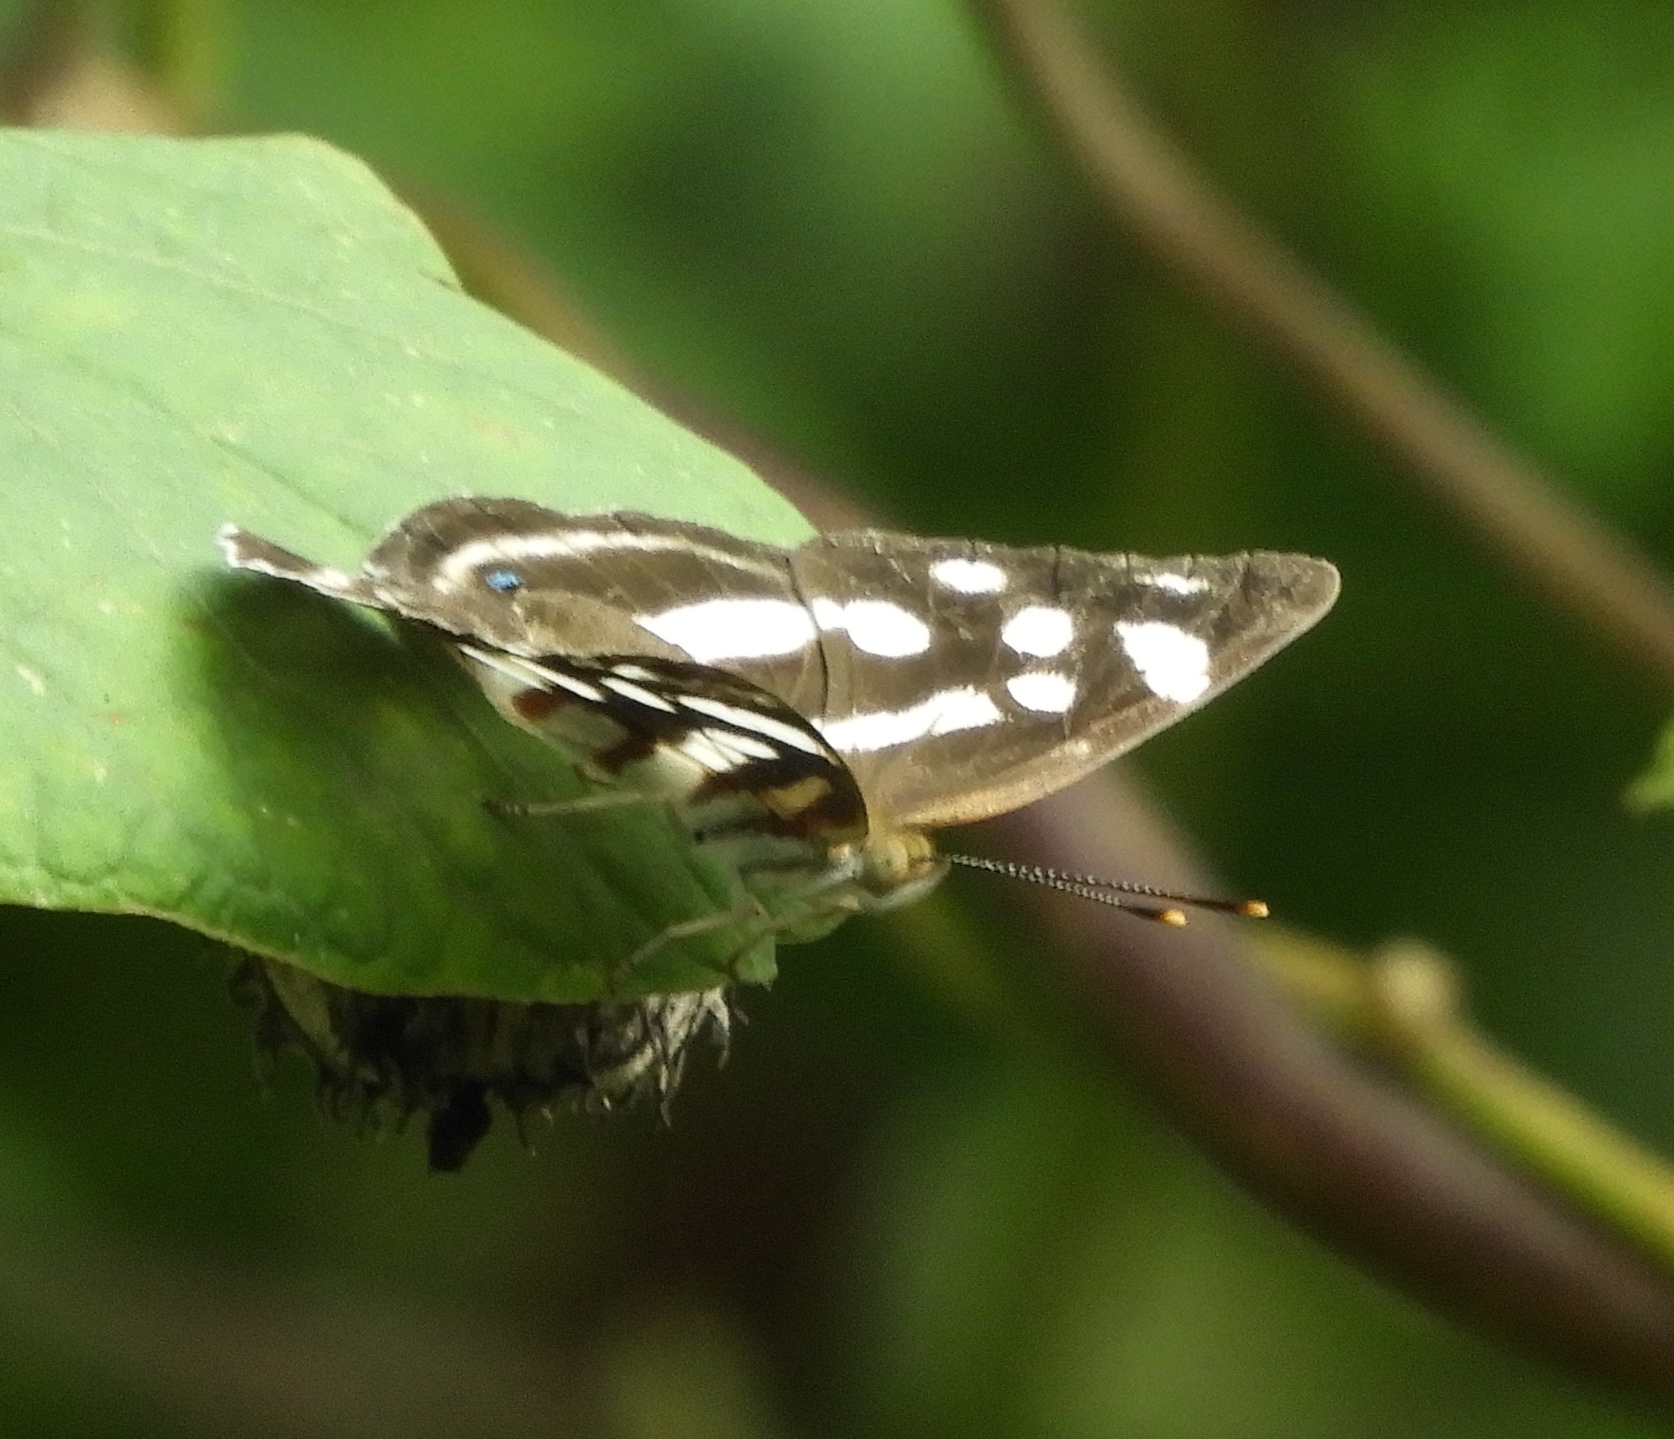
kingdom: Animalia
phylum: Arthropoda
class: Insecta
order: Lepidoptera
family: Nymphalidae
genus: Dynamine
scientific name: Dynamine mylitta
